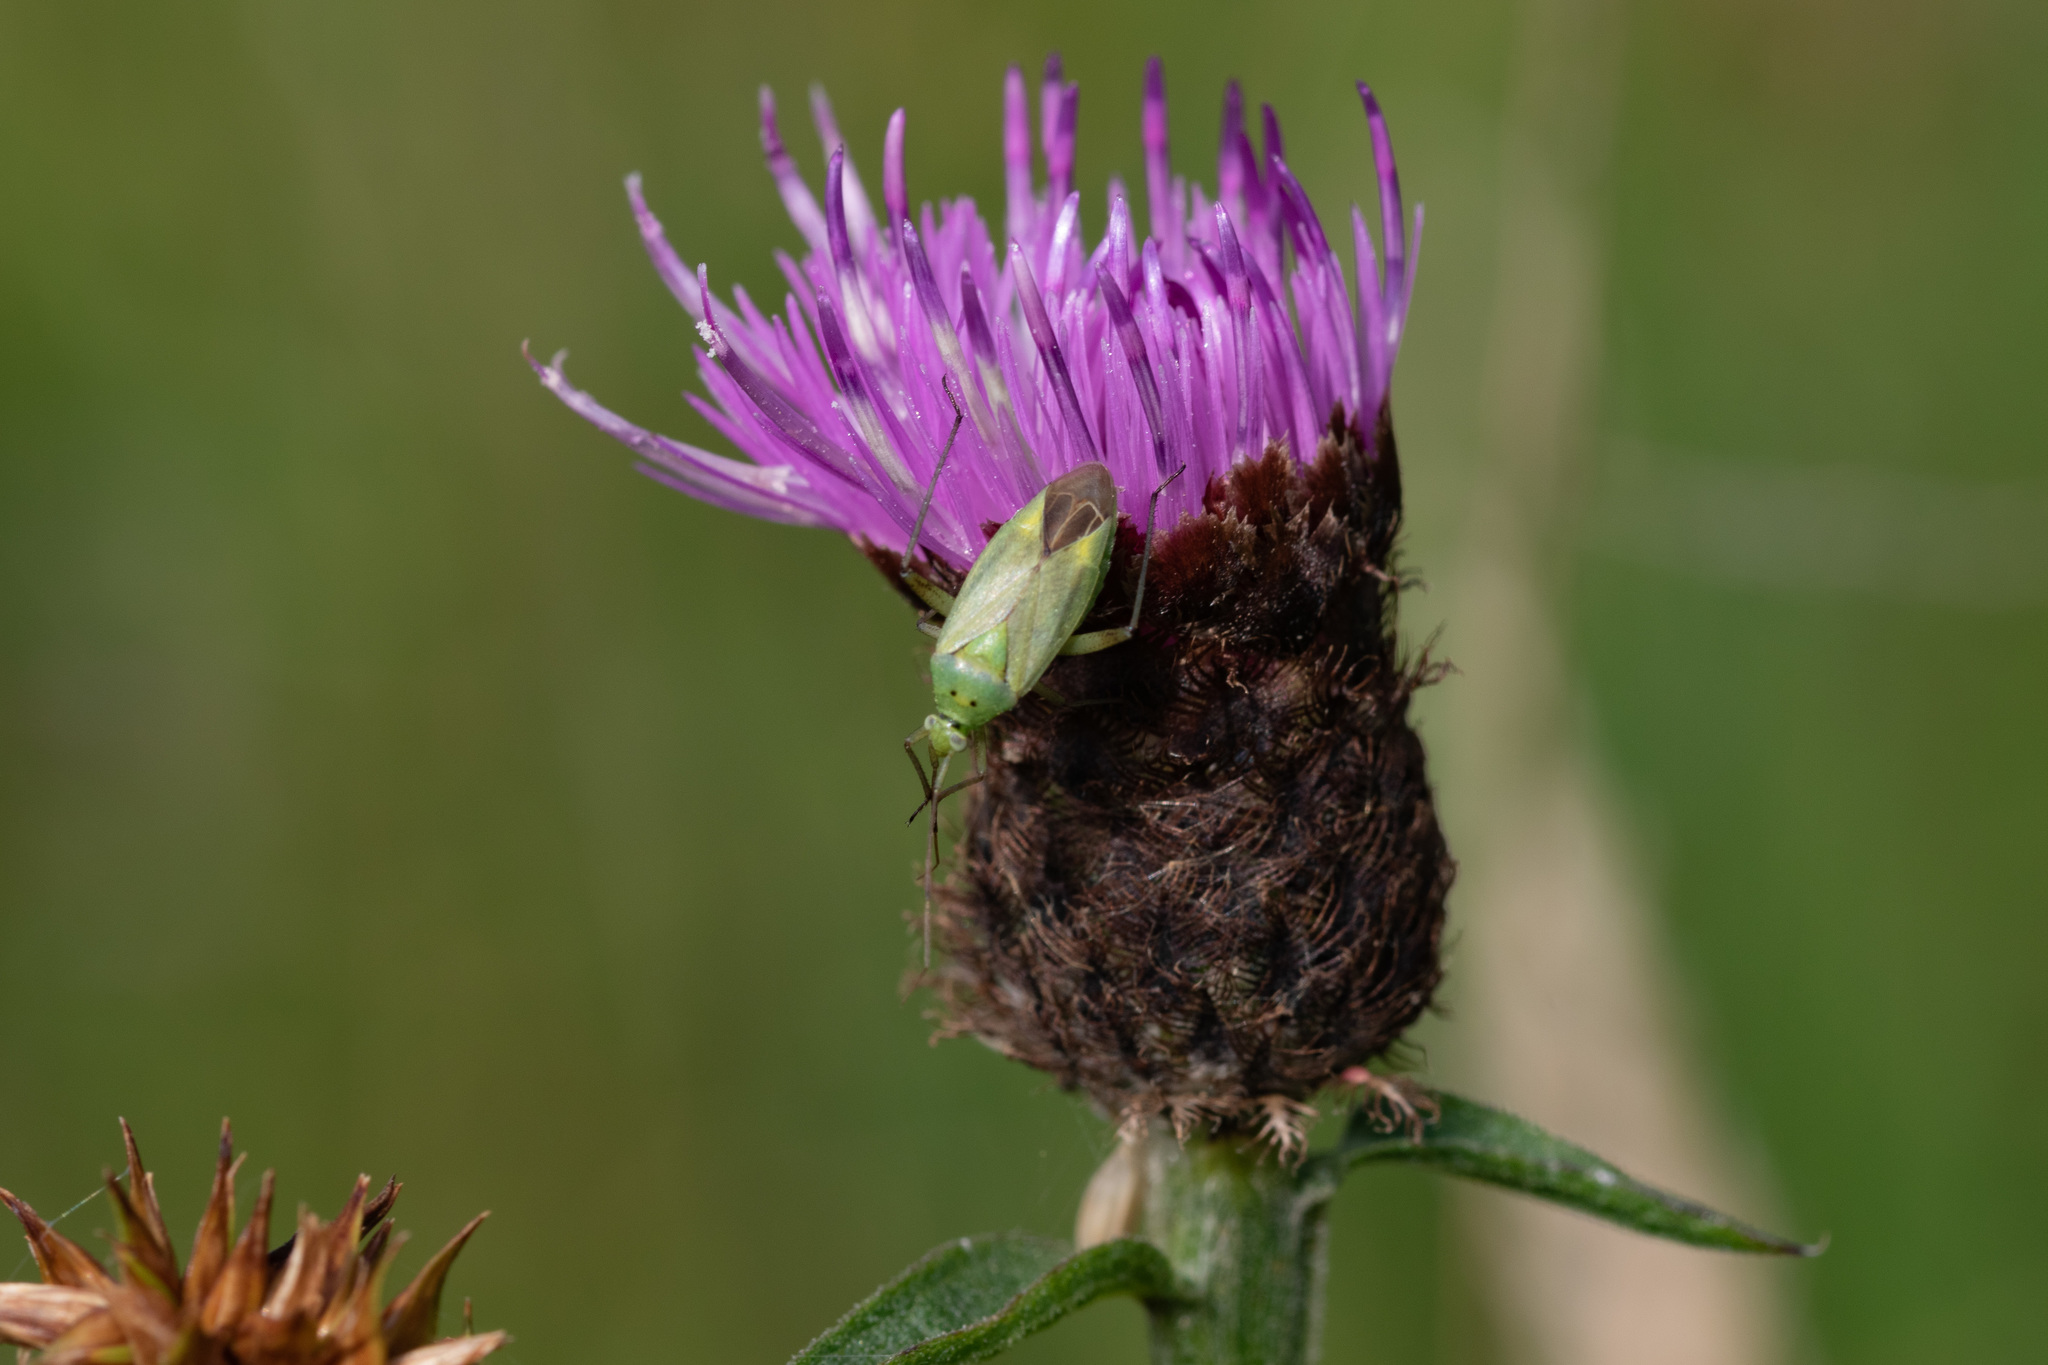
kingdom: Animalia
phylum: Arthropoda
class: Insecta
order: Hemiptera
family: Miridae
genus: Closterotomus
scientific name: Closterotomus norvegicus
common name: Plant bug
